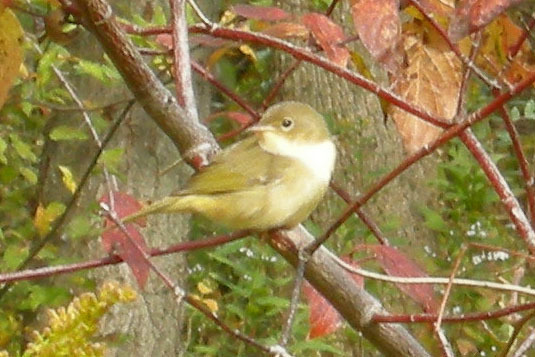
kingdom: Animalia
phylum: Chordata
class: Aves
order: Passeriformes
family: Parulidae
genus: Geothlypis
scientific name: Geothlypis trichas
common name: Common yellowthroat
